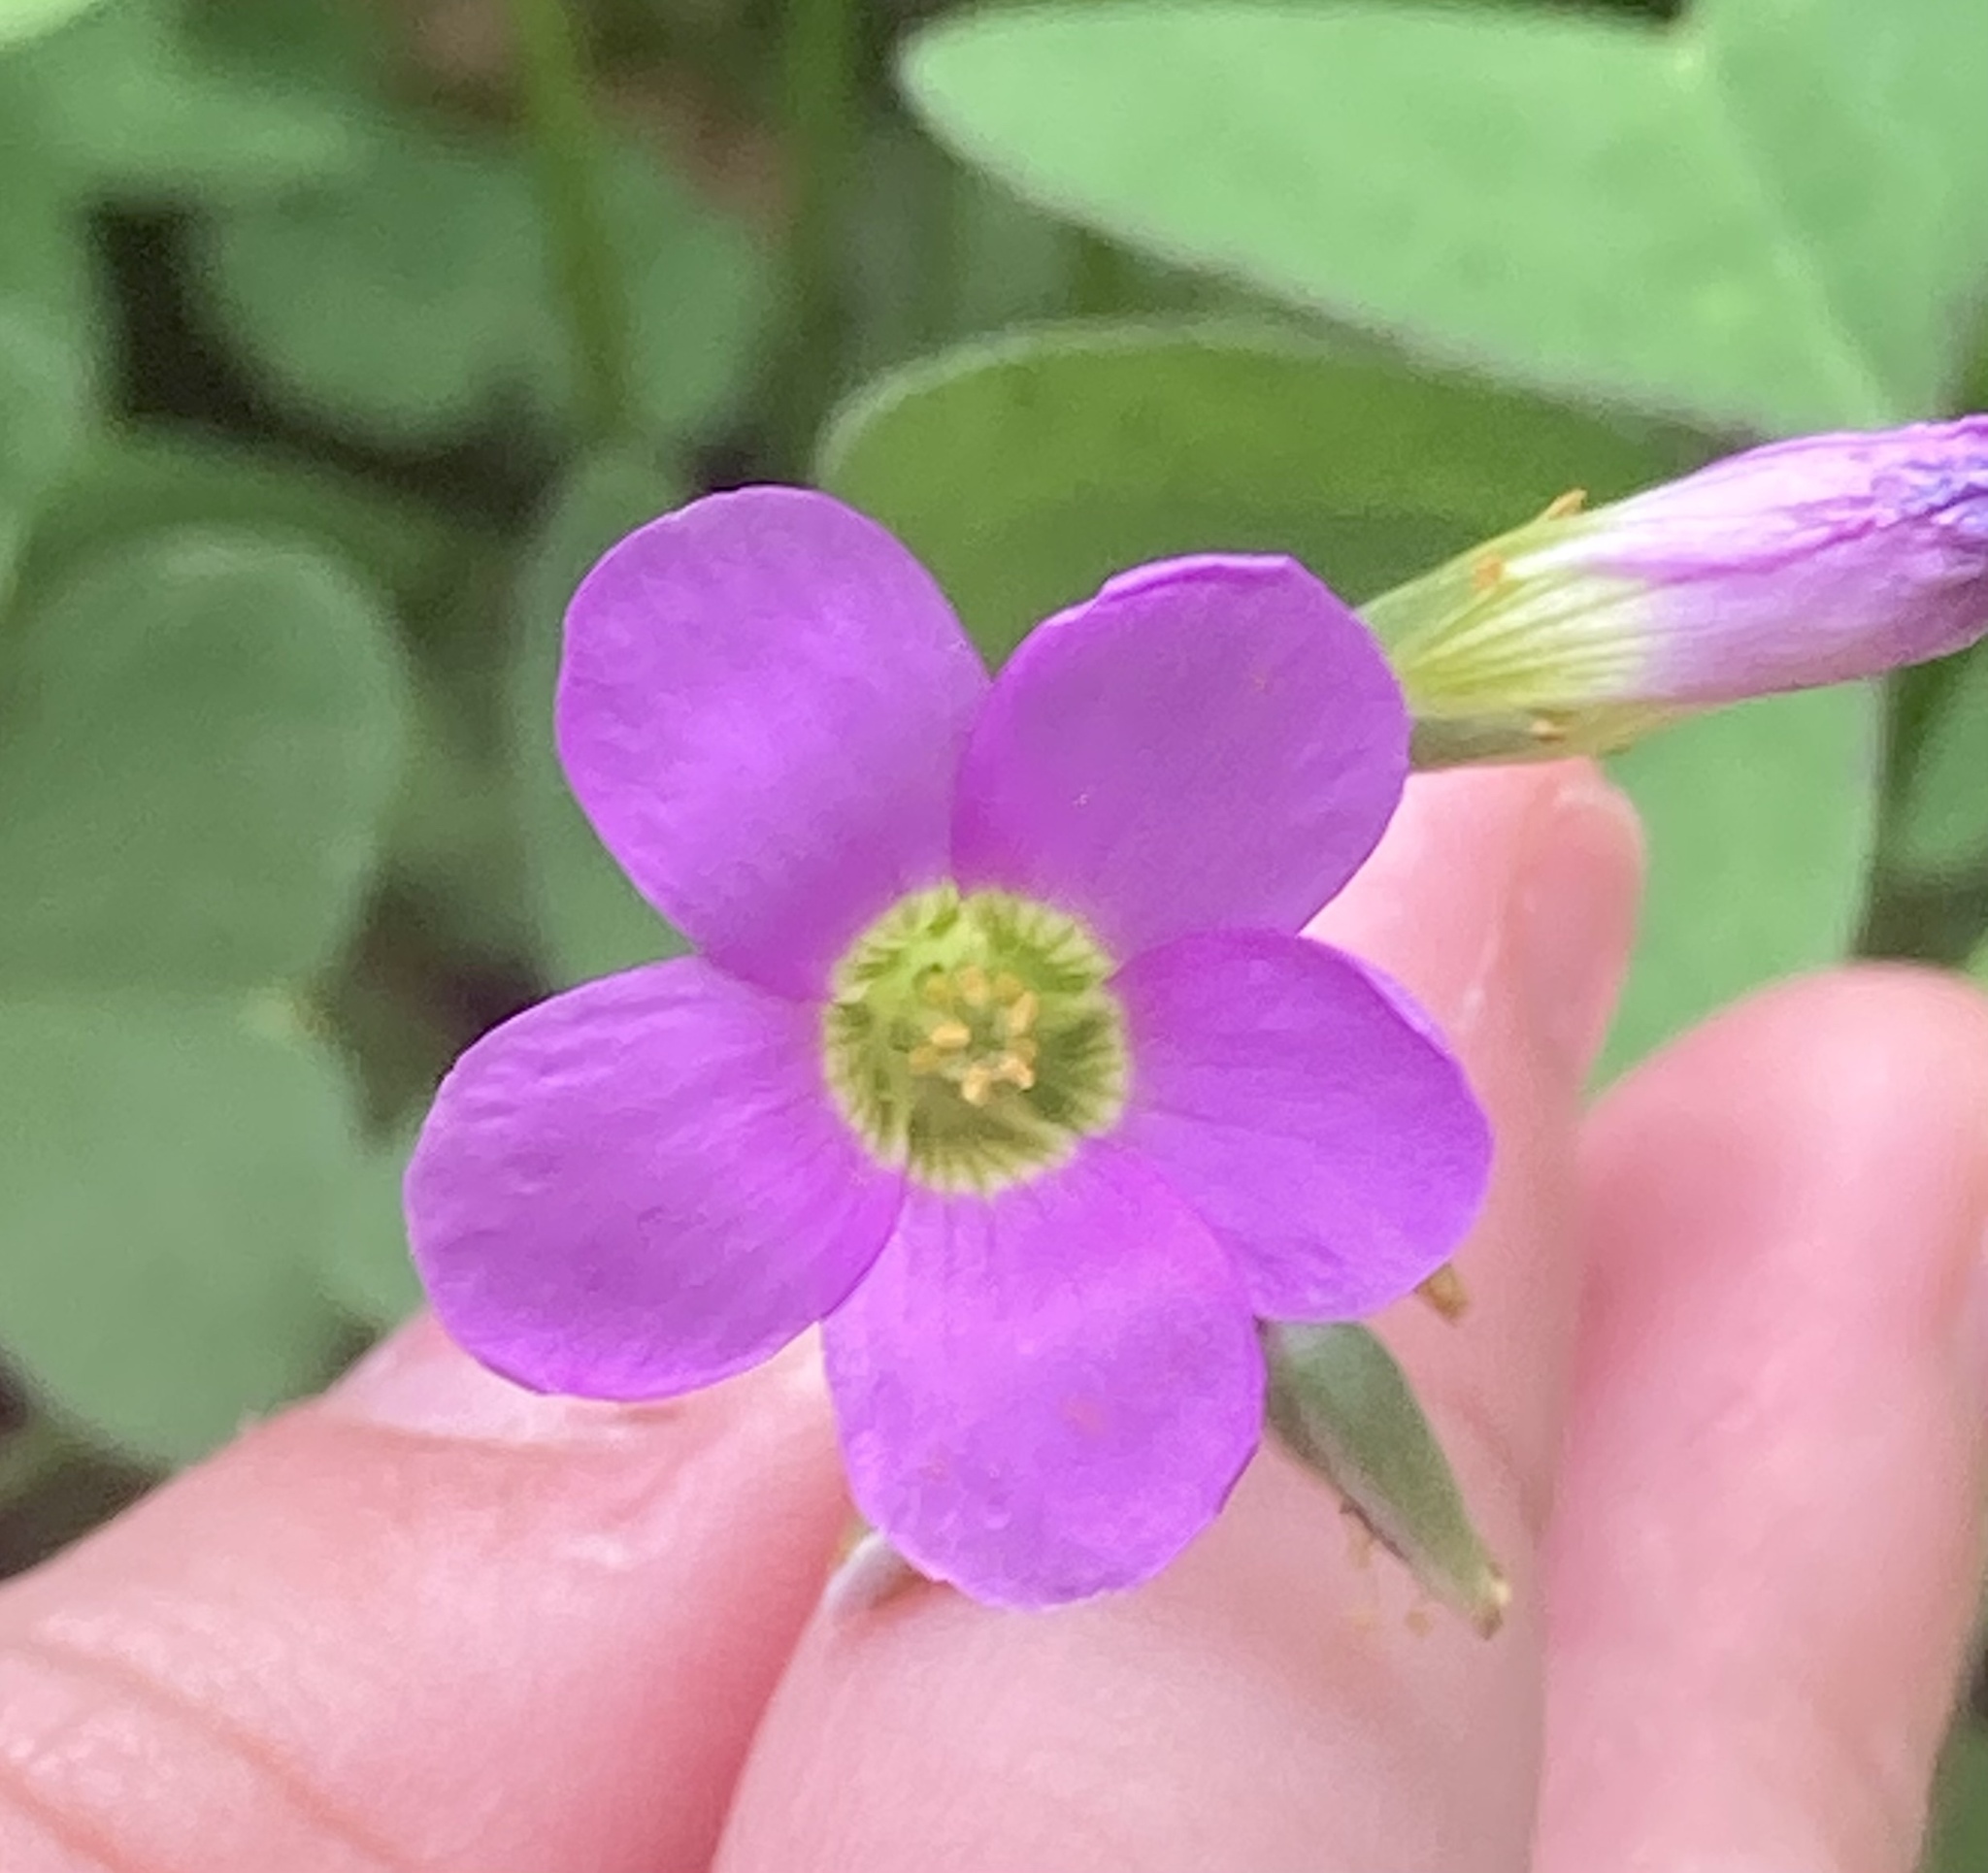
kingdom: Plantae
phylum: Tracheophyta
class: Magnoliopsida
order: Oxalidales
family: Oxalidaceae
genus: Oxalis
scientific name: Oxalis latifolia
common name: Garden pink-sorrel
